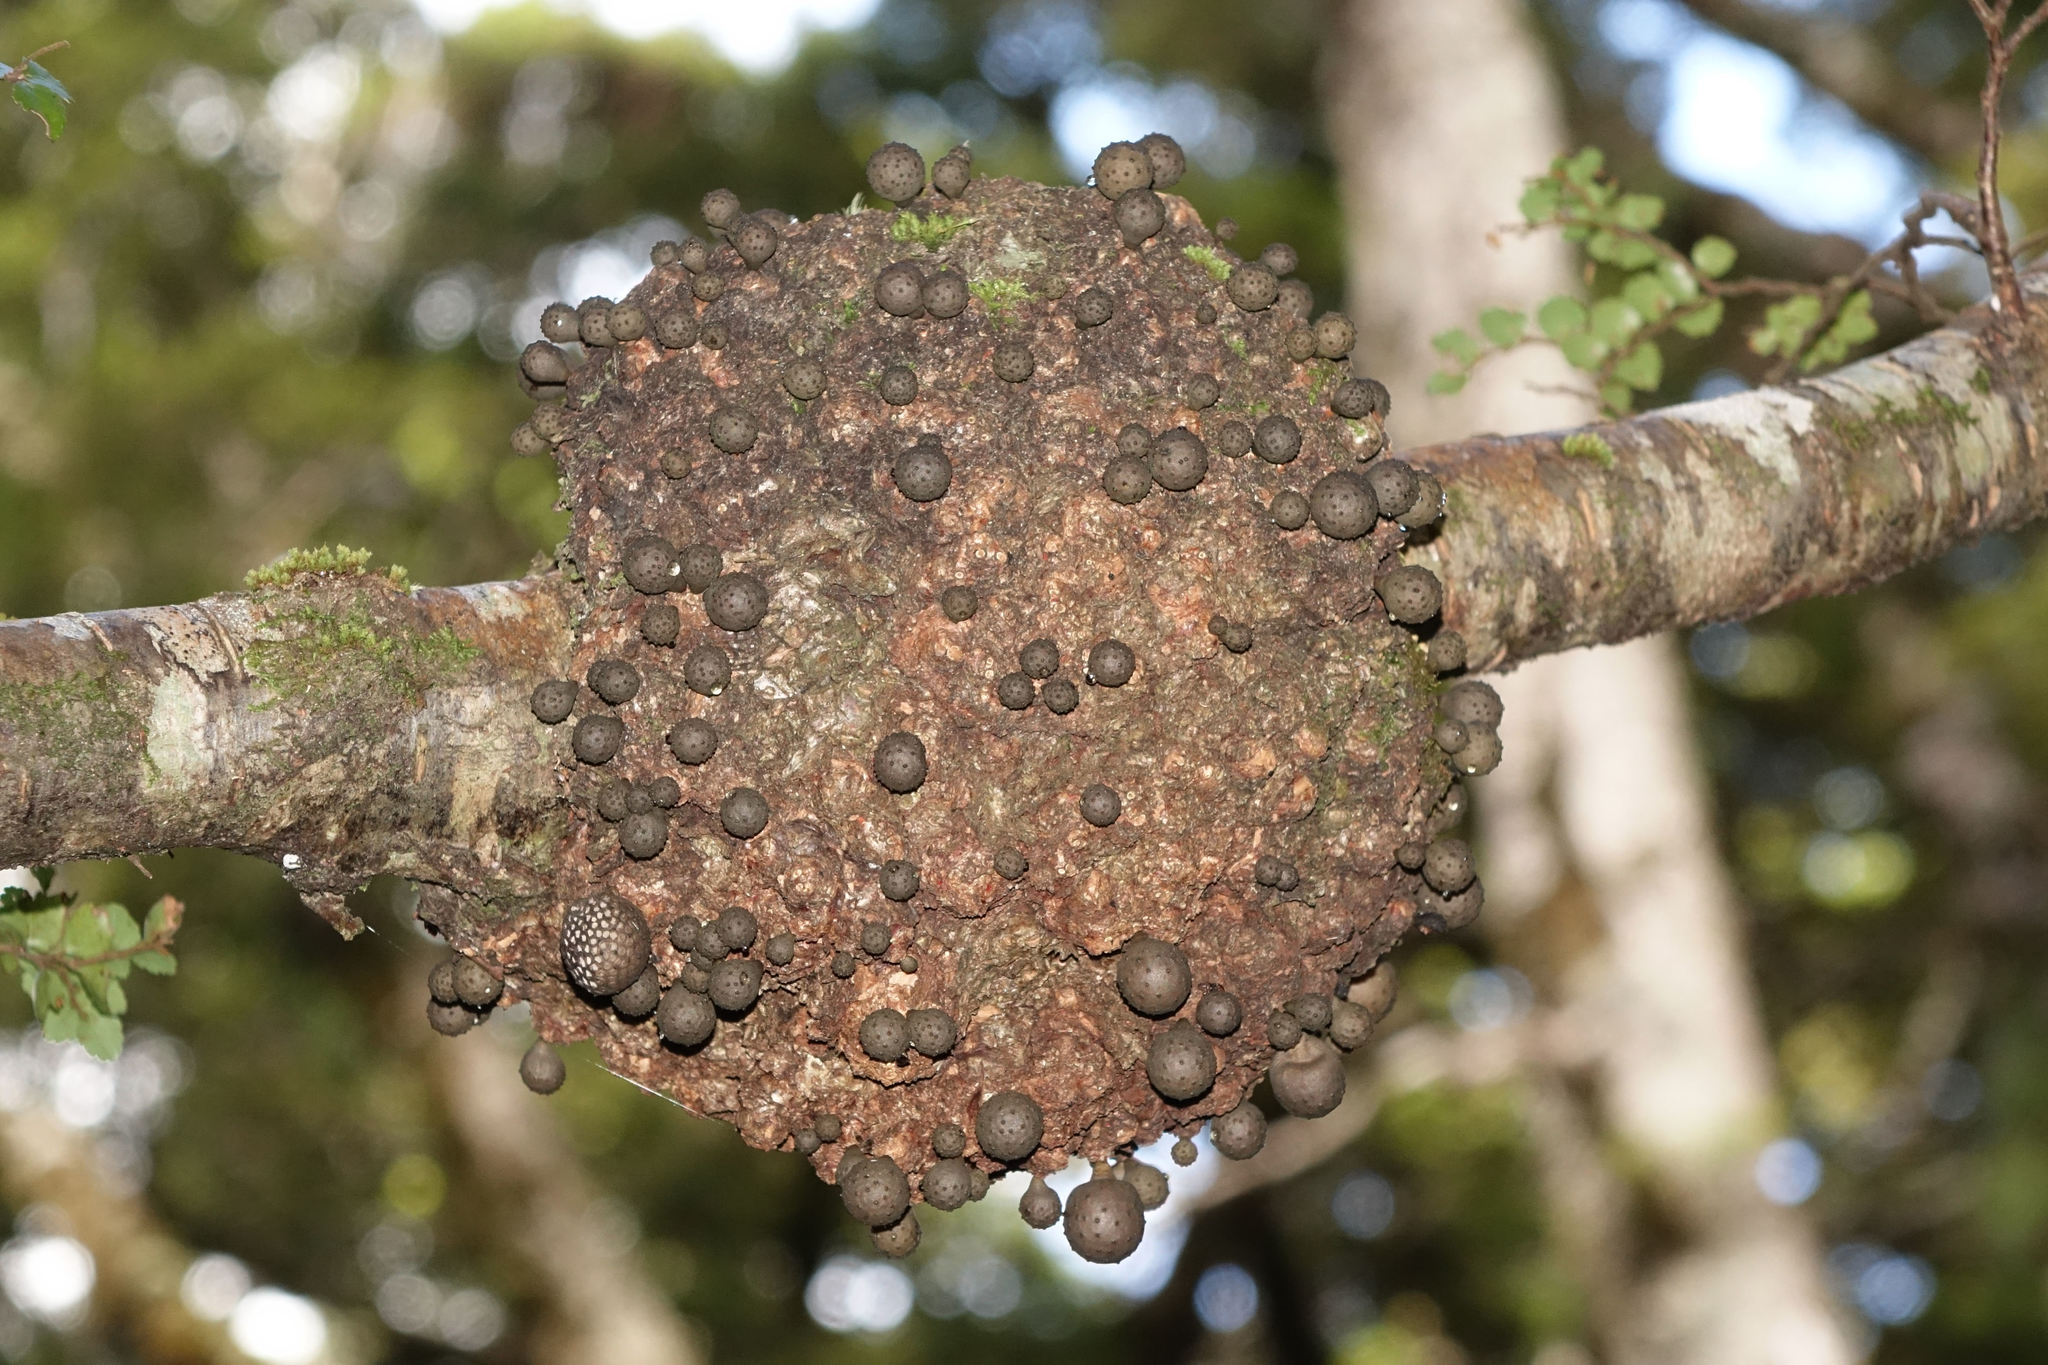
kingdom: Fungi
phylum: Ascomycota
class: Leotiomycetes
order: Cyttariales
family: Cyttariaceae
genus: Cyttaria
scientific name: Cyttaria nigra
